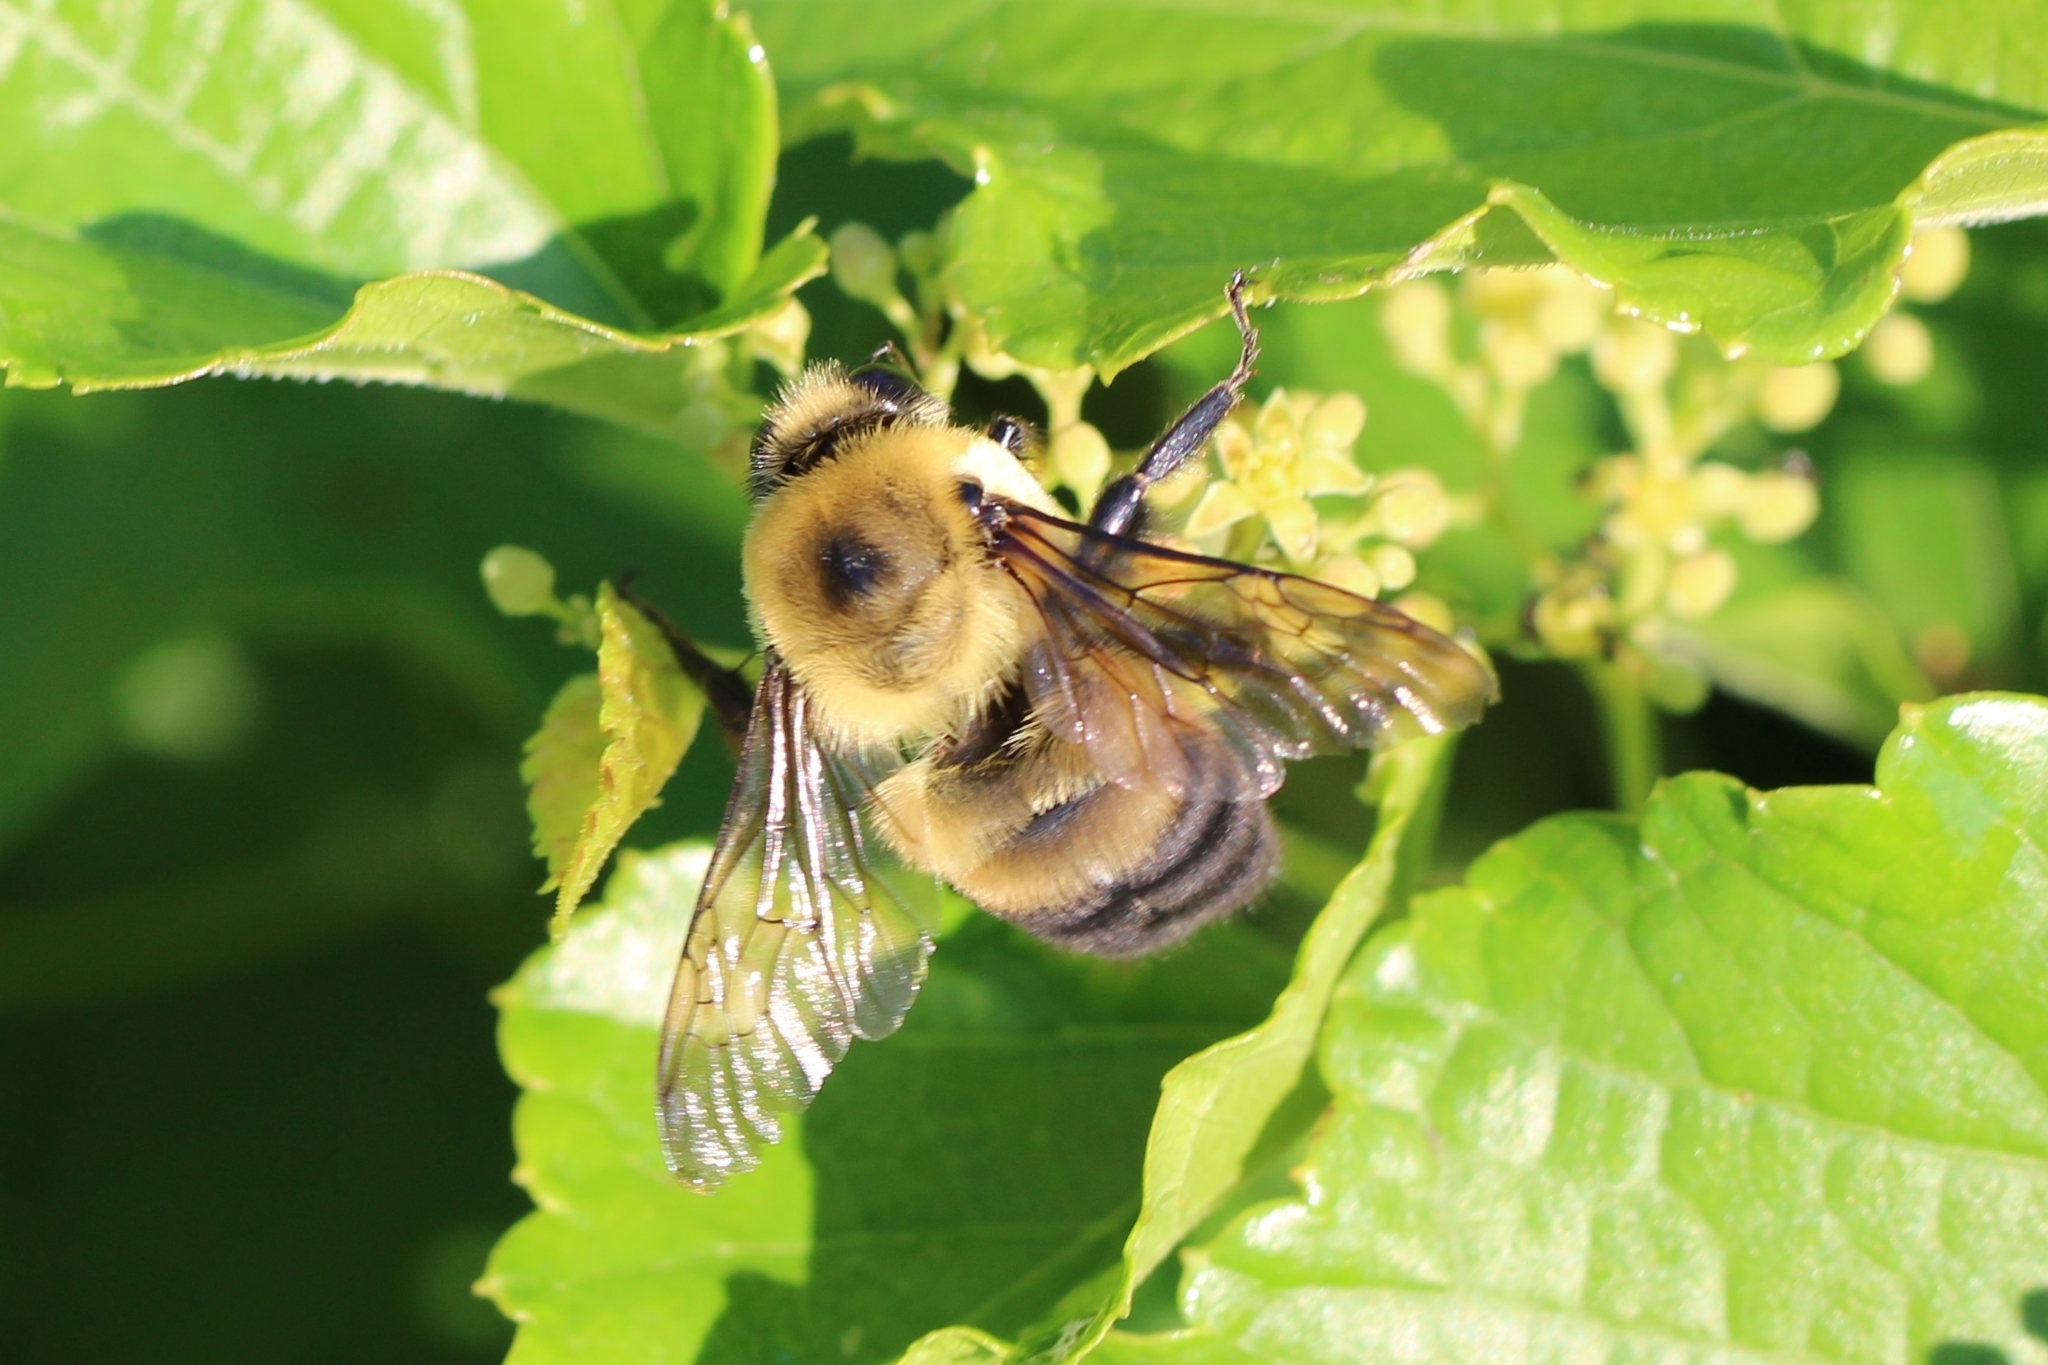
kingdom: Animalia
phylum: Arthropoda
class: Insecta
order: Hymenoptera
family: Apidae
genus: Bombus
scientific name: Bombus griseocollis
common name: Brown-belted bumble bee
